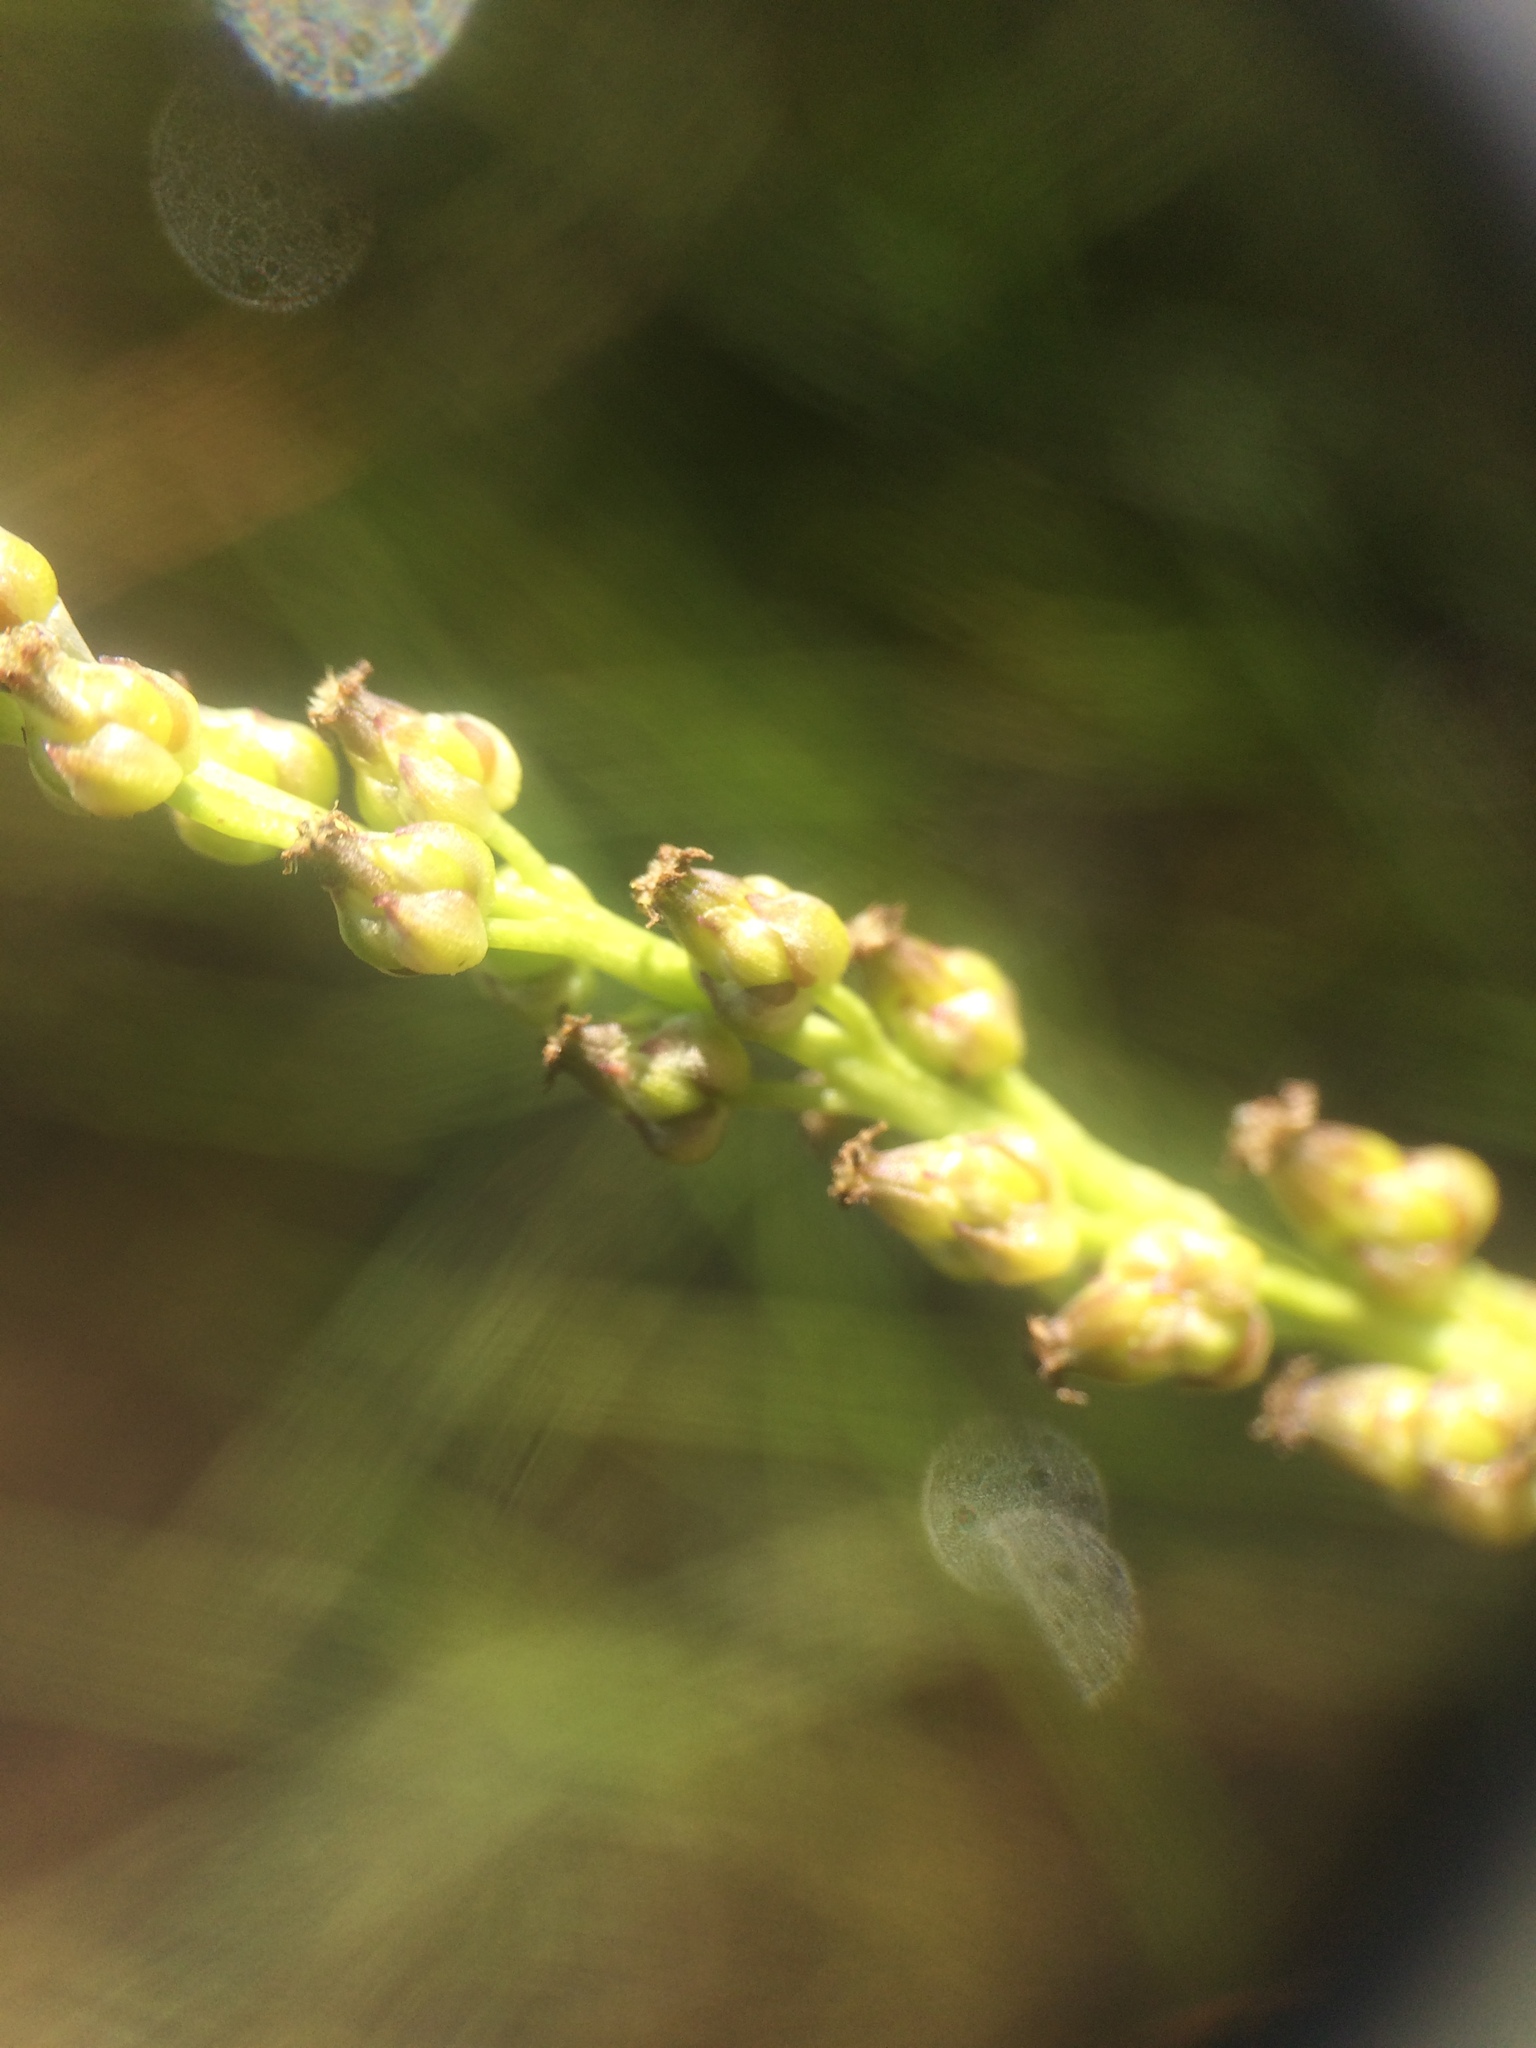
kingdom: Plantae
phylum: Tracheophyta
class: Liliopsida
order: Alismatales
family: Juncaginaceae
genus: Triglochin
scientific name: Triglochin maritima
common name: Sea arrowgrass
